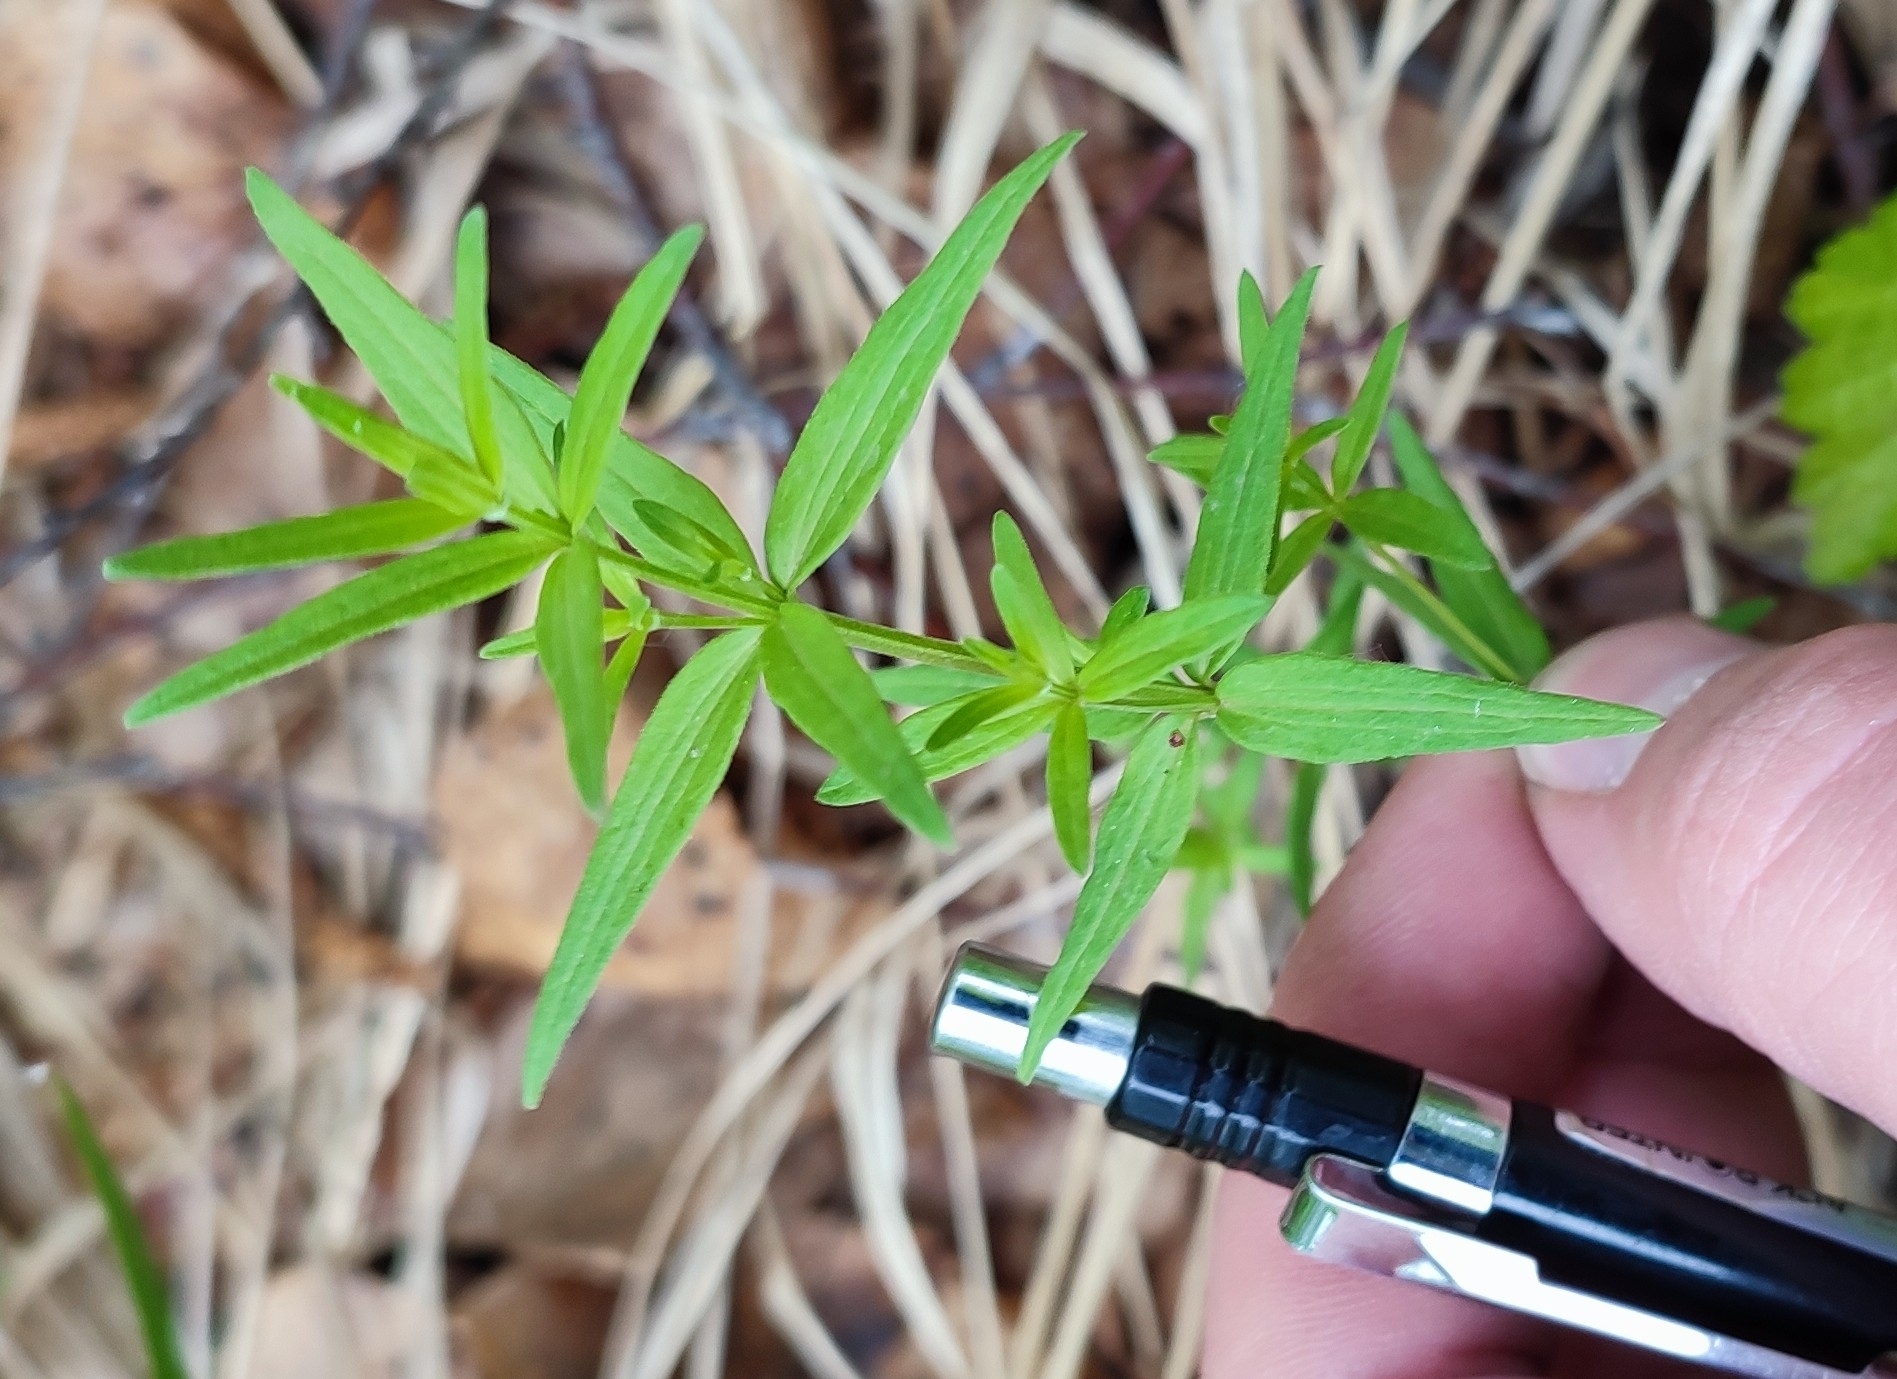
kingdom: Plantae
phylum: Tracheophyta
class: Magnoliopsida
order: Gentianales
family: Rubiaceae
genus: Galium
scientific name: Galium boreale
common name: Northern bedstraw
